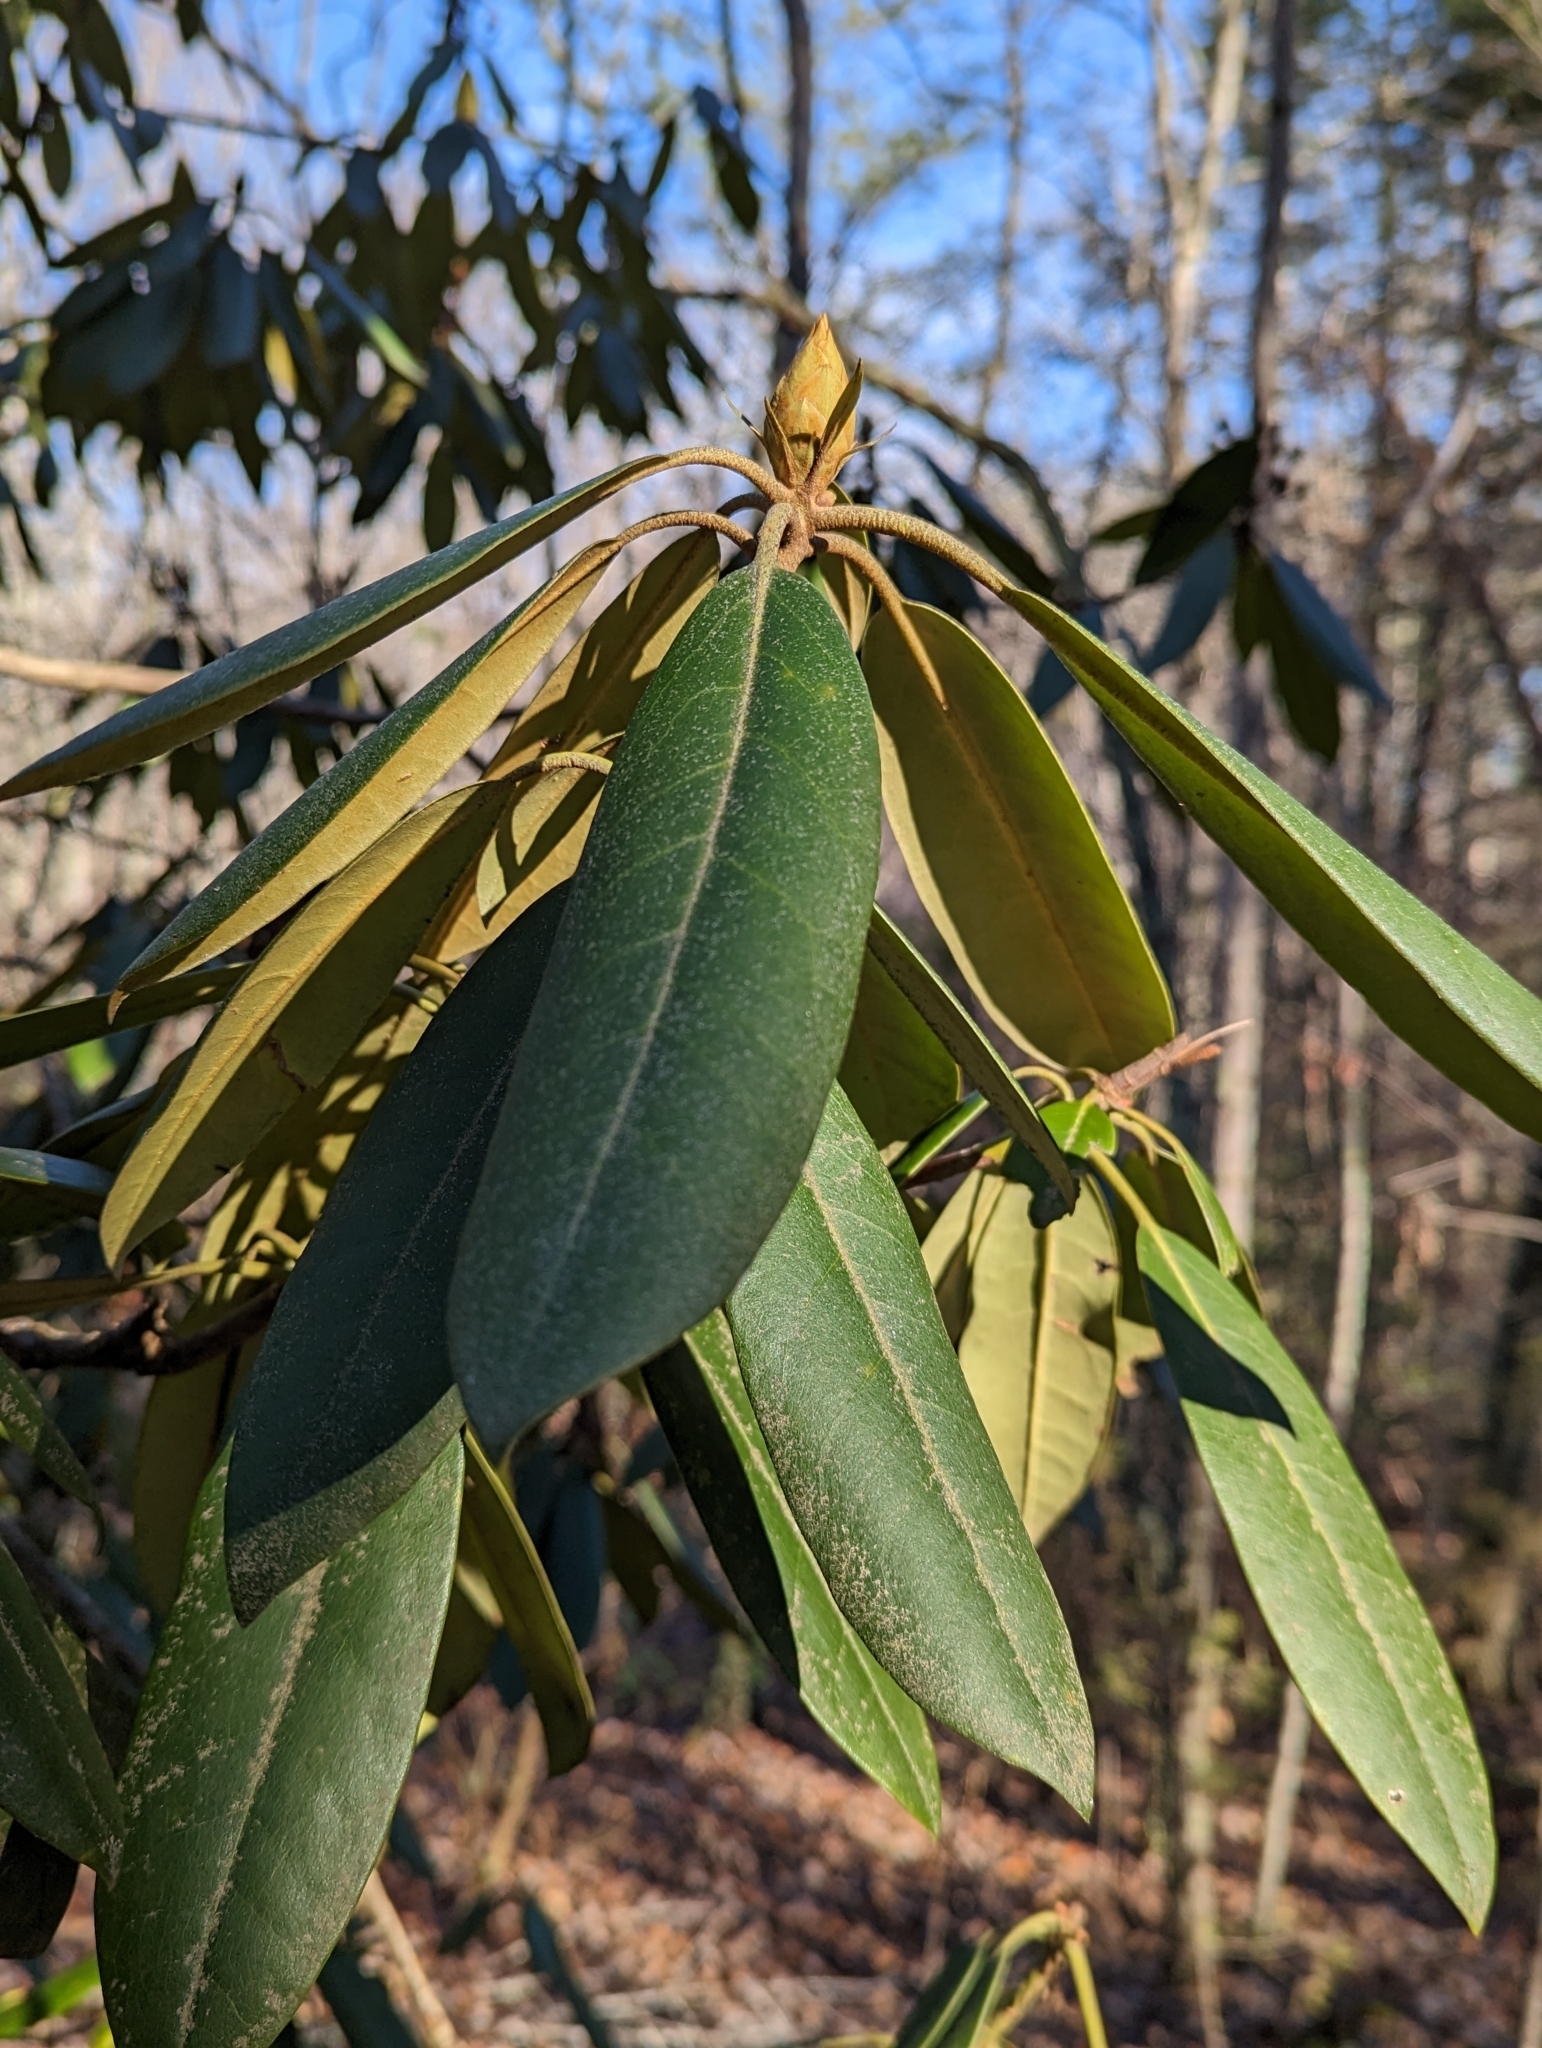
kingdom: Plantae
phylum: Tracheophyta
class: Magnoliopsida
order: Ericales
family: Ericaceae
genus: Rhododendron
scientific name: Rhododendron maximum
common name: Great rhododendron
